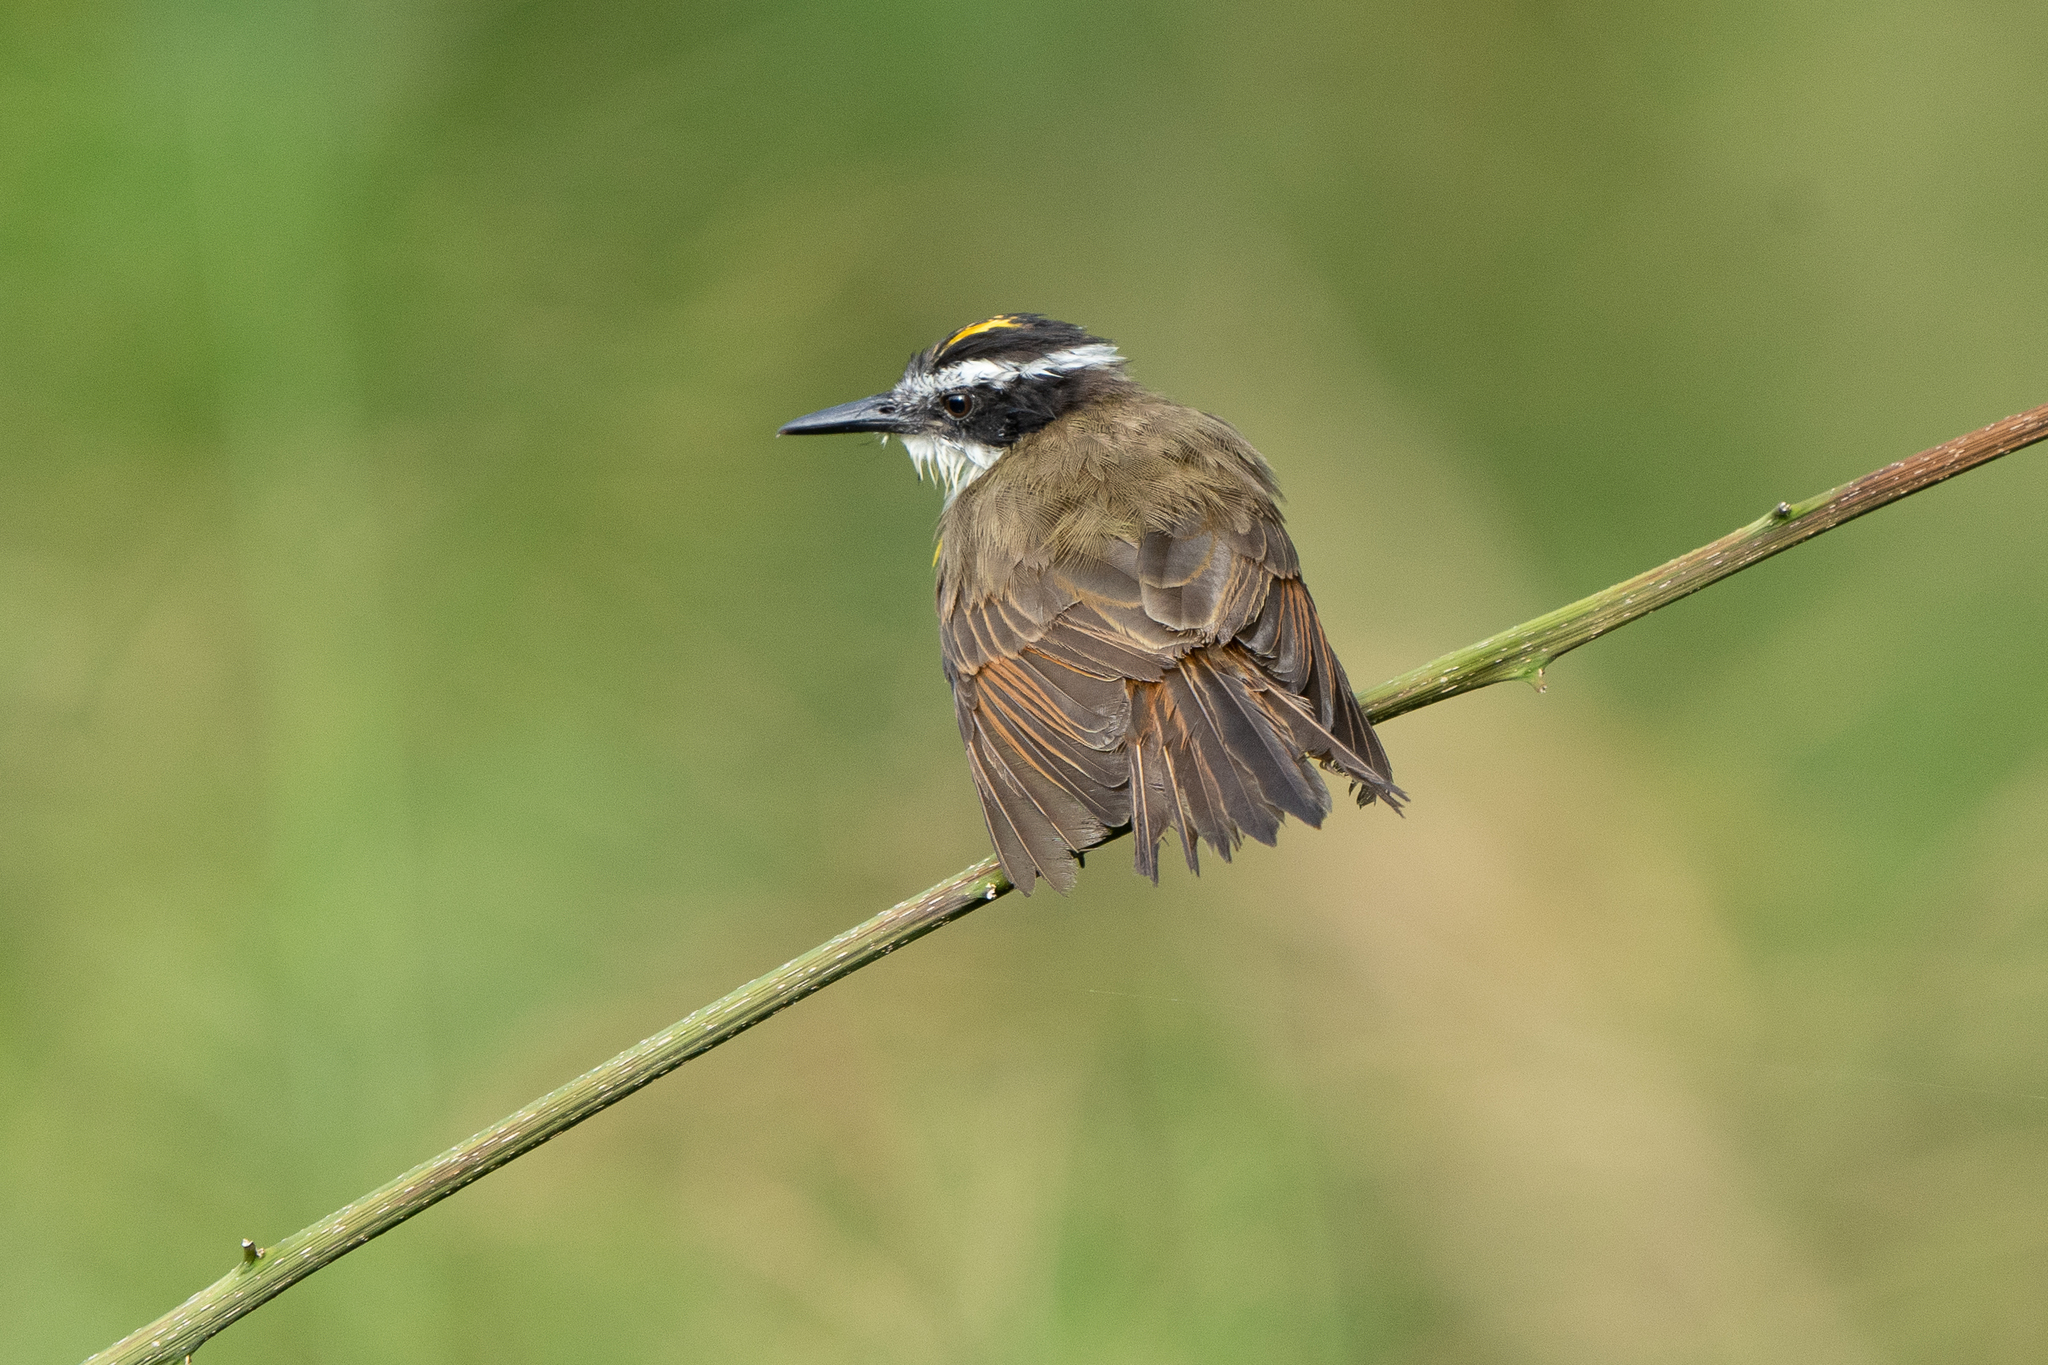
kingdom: Animalia
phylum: Chordata
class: Aves
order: Passeriformes
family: Tyrannidae
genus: Pitangus
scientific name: Pitangus lictor
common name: Lesser kiskadee
